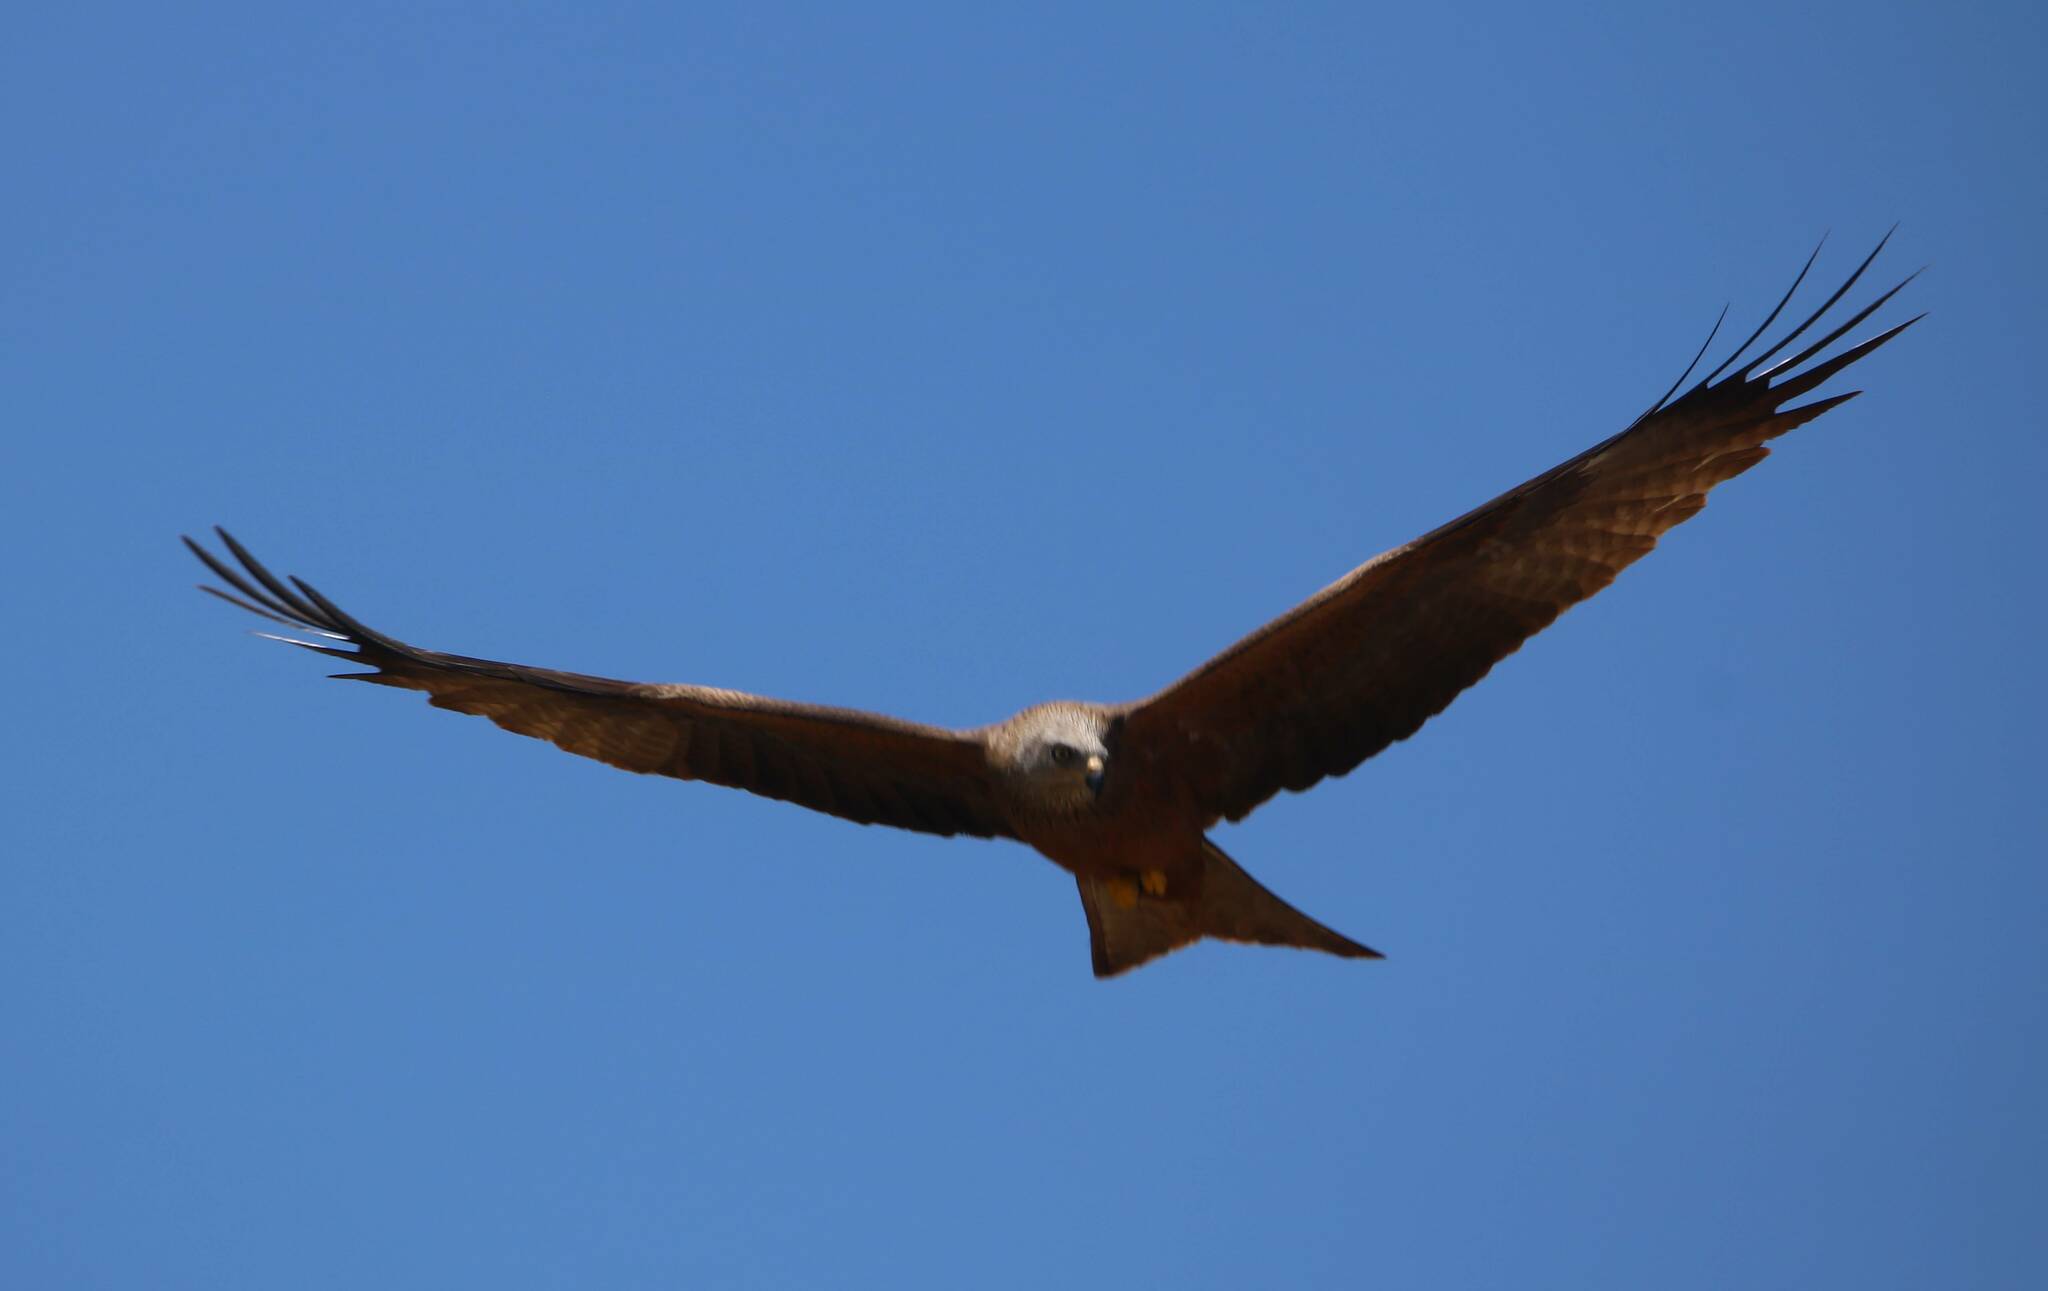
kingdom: Animalia
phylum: Chordata
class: Aves
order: Accipitriformes
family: Accipitridae
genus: Milvus
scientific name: Milvus migrans
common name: Black kite
